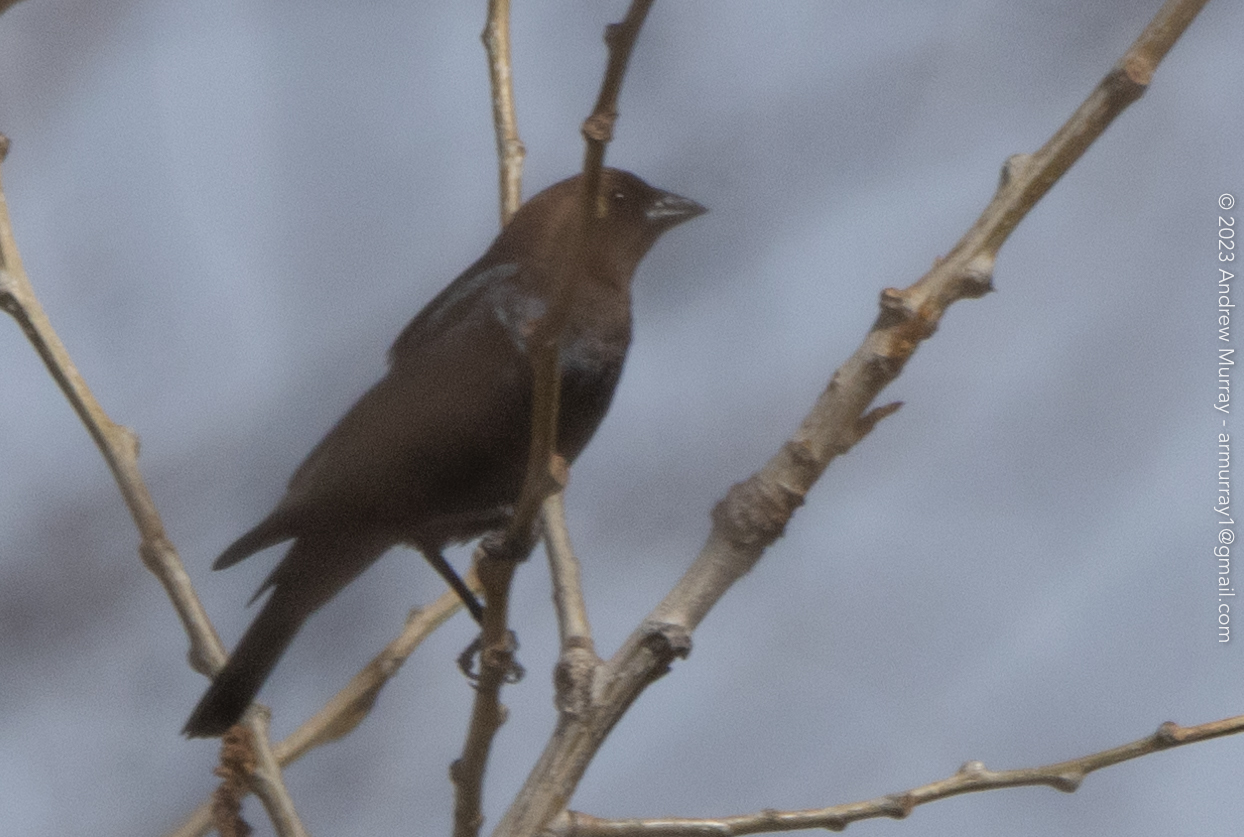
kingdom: Animalia
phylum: Chordata
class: Aves
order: Passeriformes
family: Icteridae
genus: Molothrus
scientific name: Molothrus ater
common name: Brown-headed cowbird
